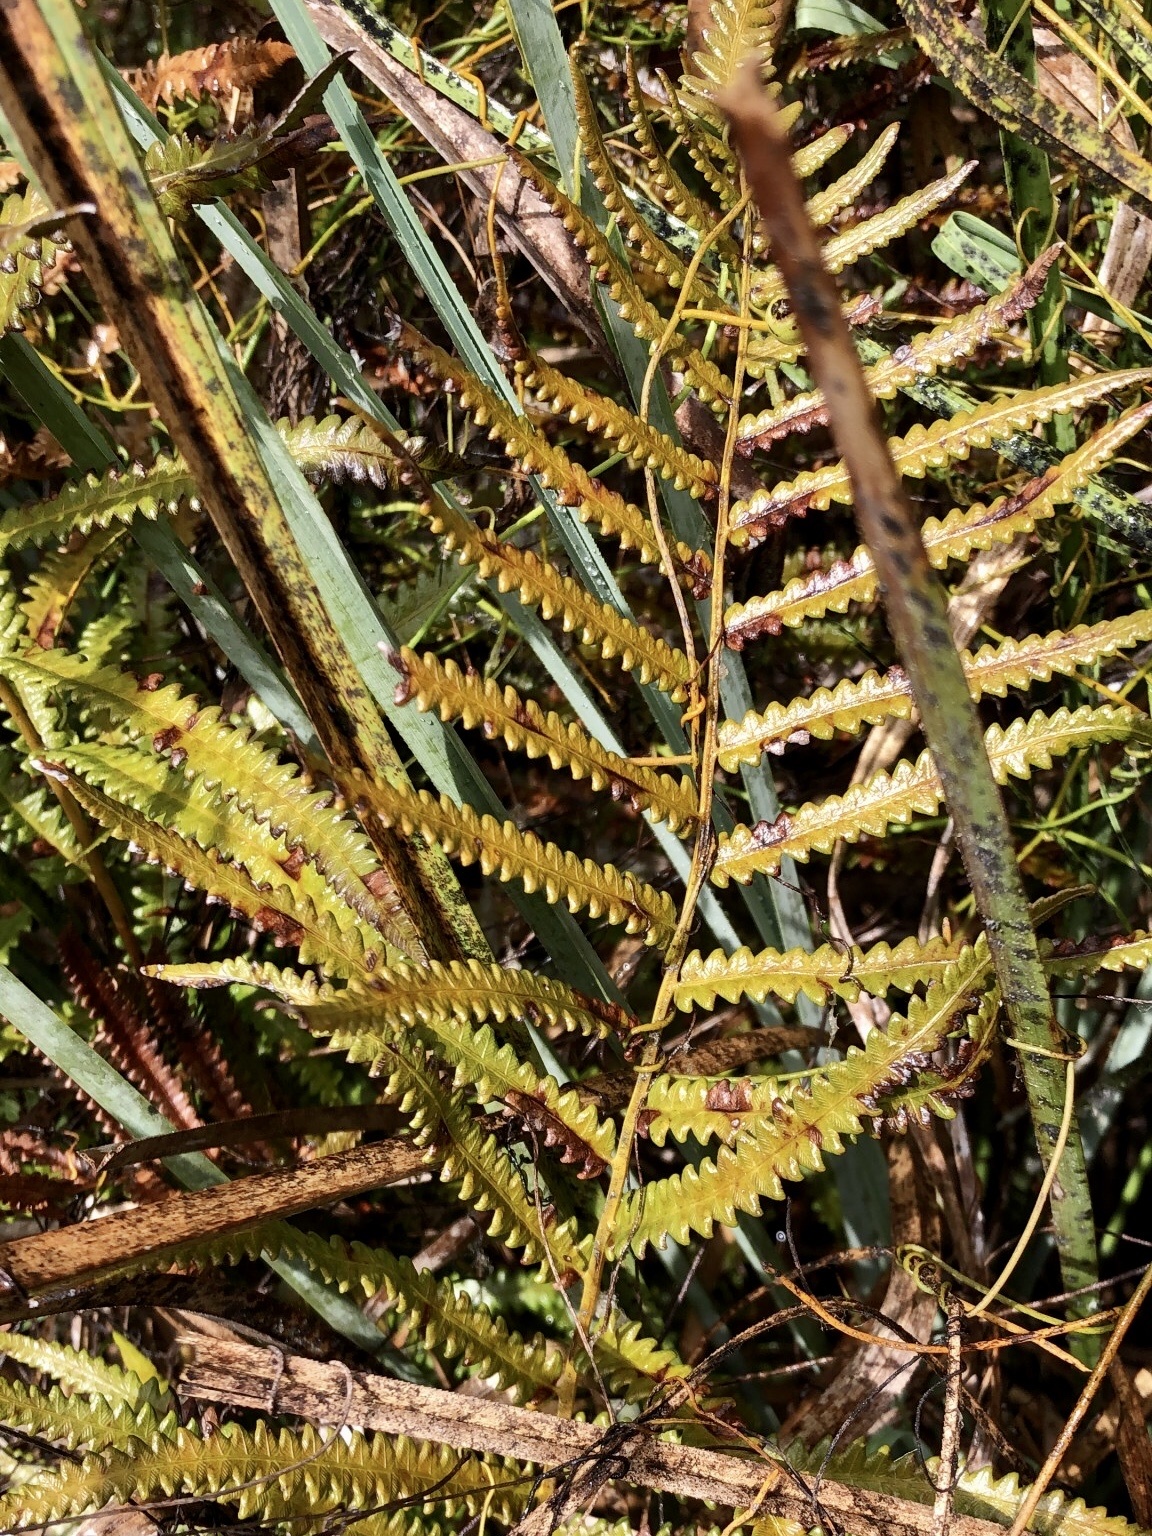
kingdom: Plantae
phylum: Tracheophyta
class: Polypodiopsida
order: Polypodiales
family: Blechnaceae
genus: Anchistea
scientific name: Anchistea virginica
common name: Virginia chain fern
